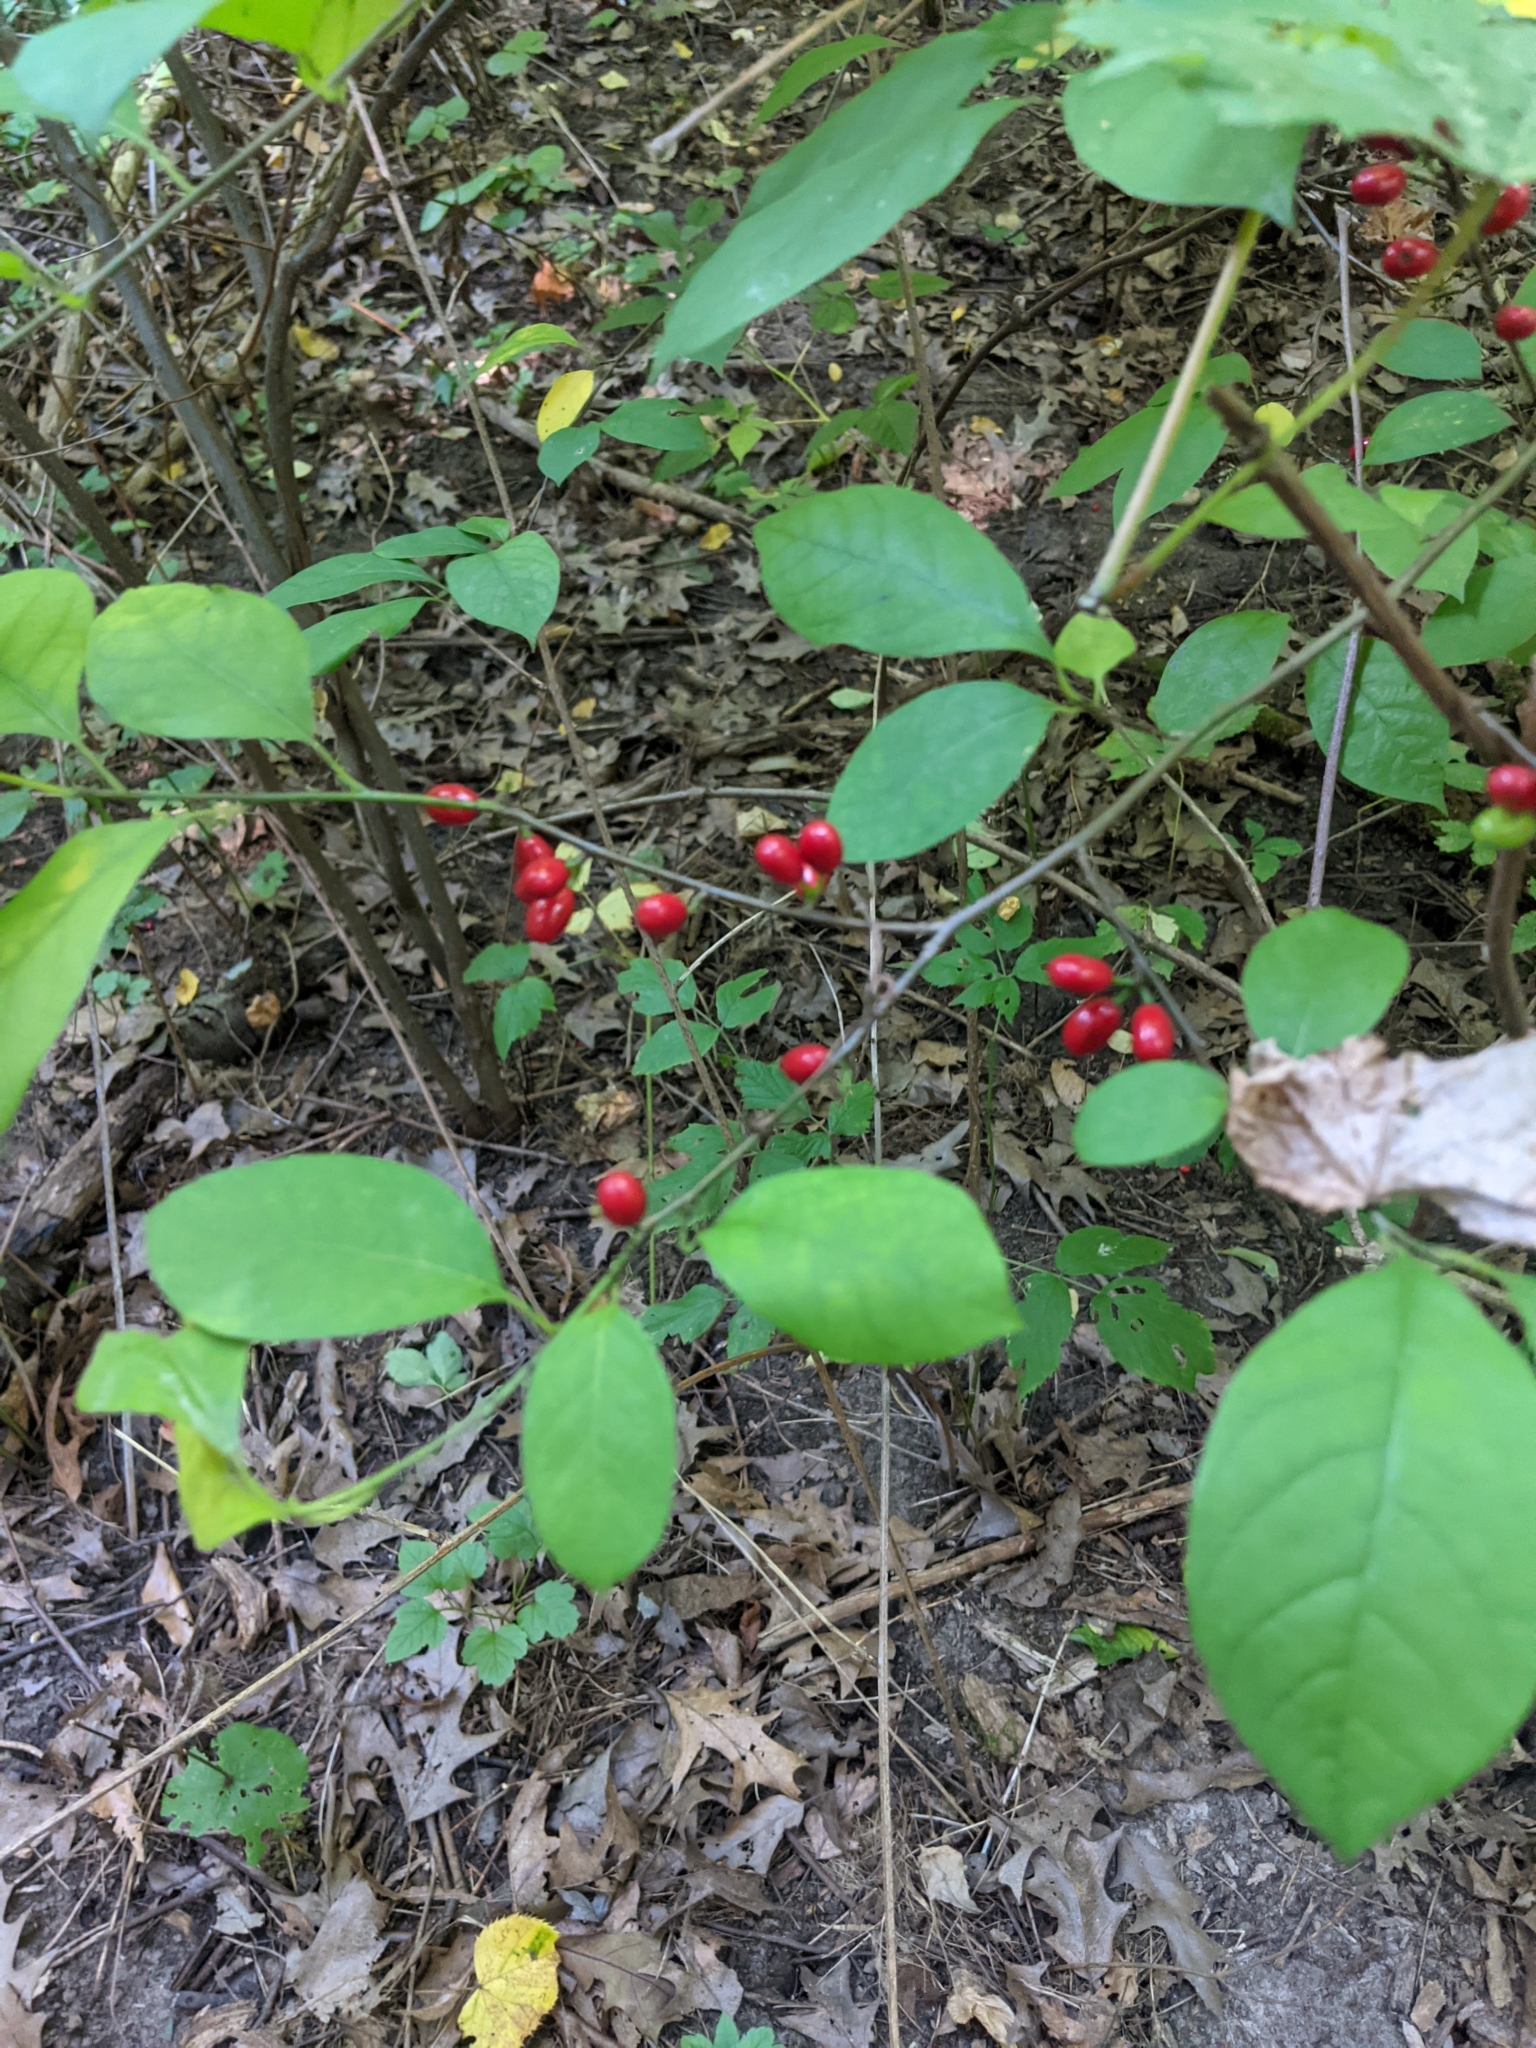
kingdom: Plantae
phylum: Tracheophyta
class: Magnoliopsida
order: Laurales
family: Lauraceae
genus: Lindera
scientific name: Lindera benzoin
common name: Spicebush
